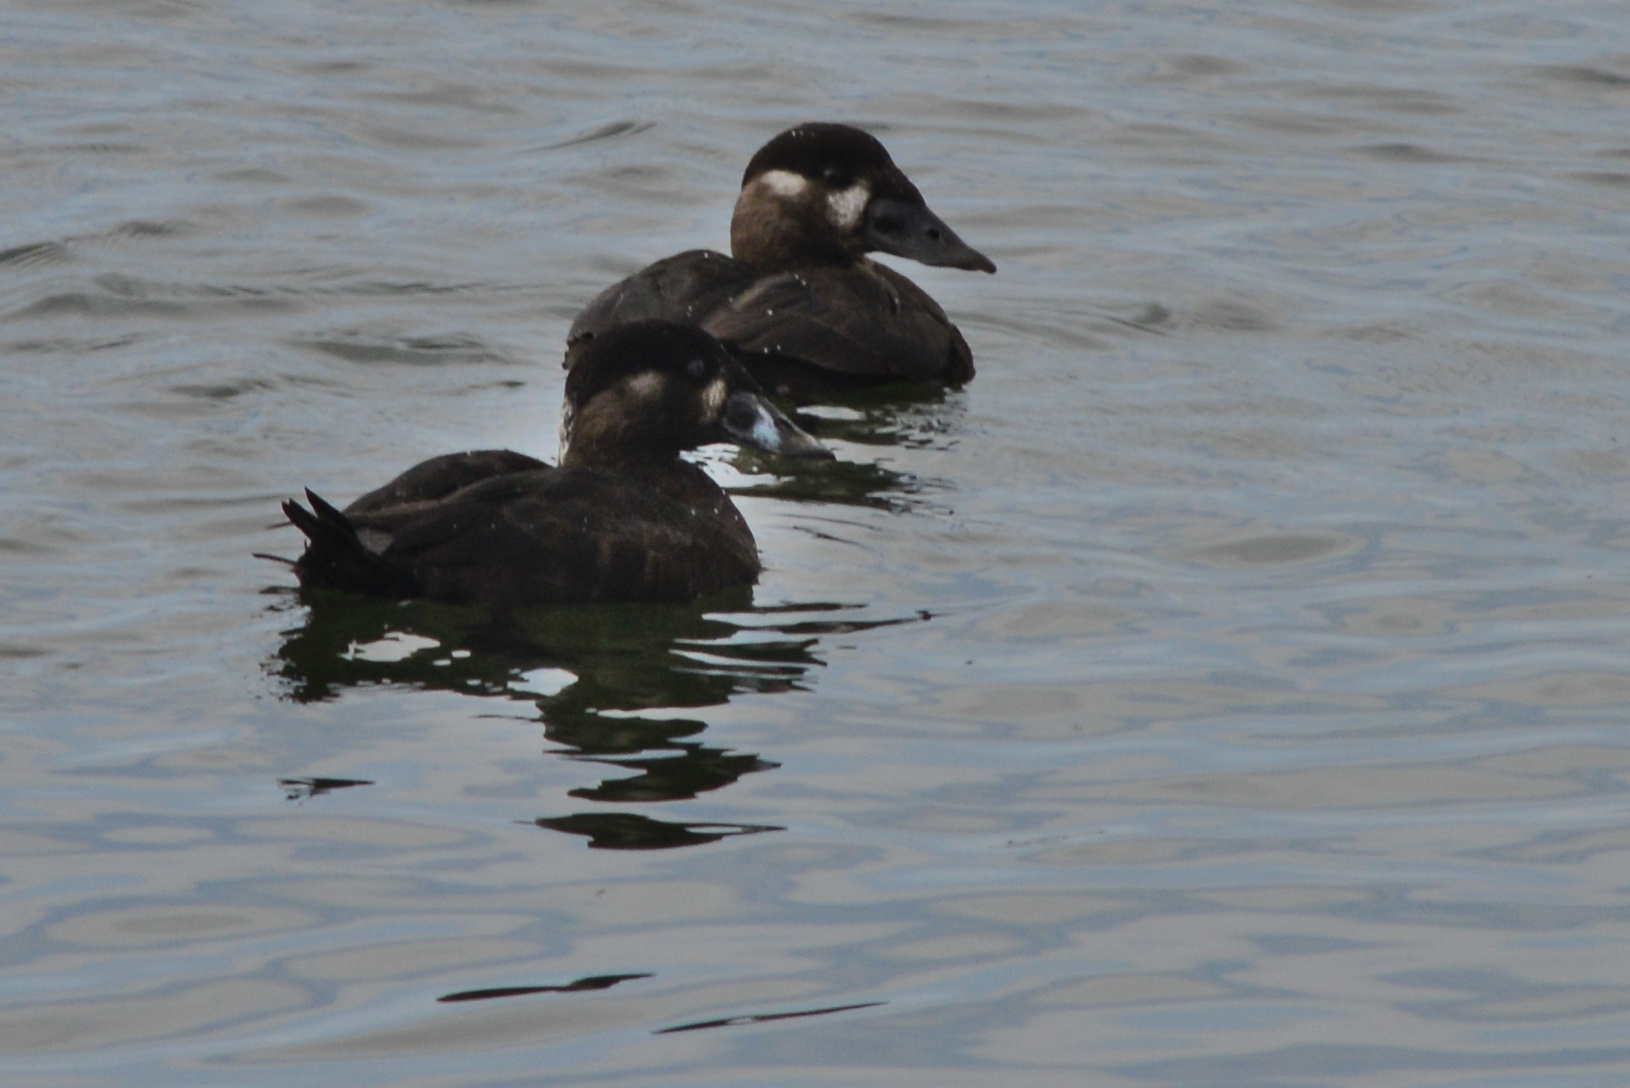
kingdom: Animalia
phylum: Chordata
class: Aves
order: Anseriformes
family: Anatidae
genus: Melanitta
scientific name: Melanitta perspicillata
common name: Surf scoter
